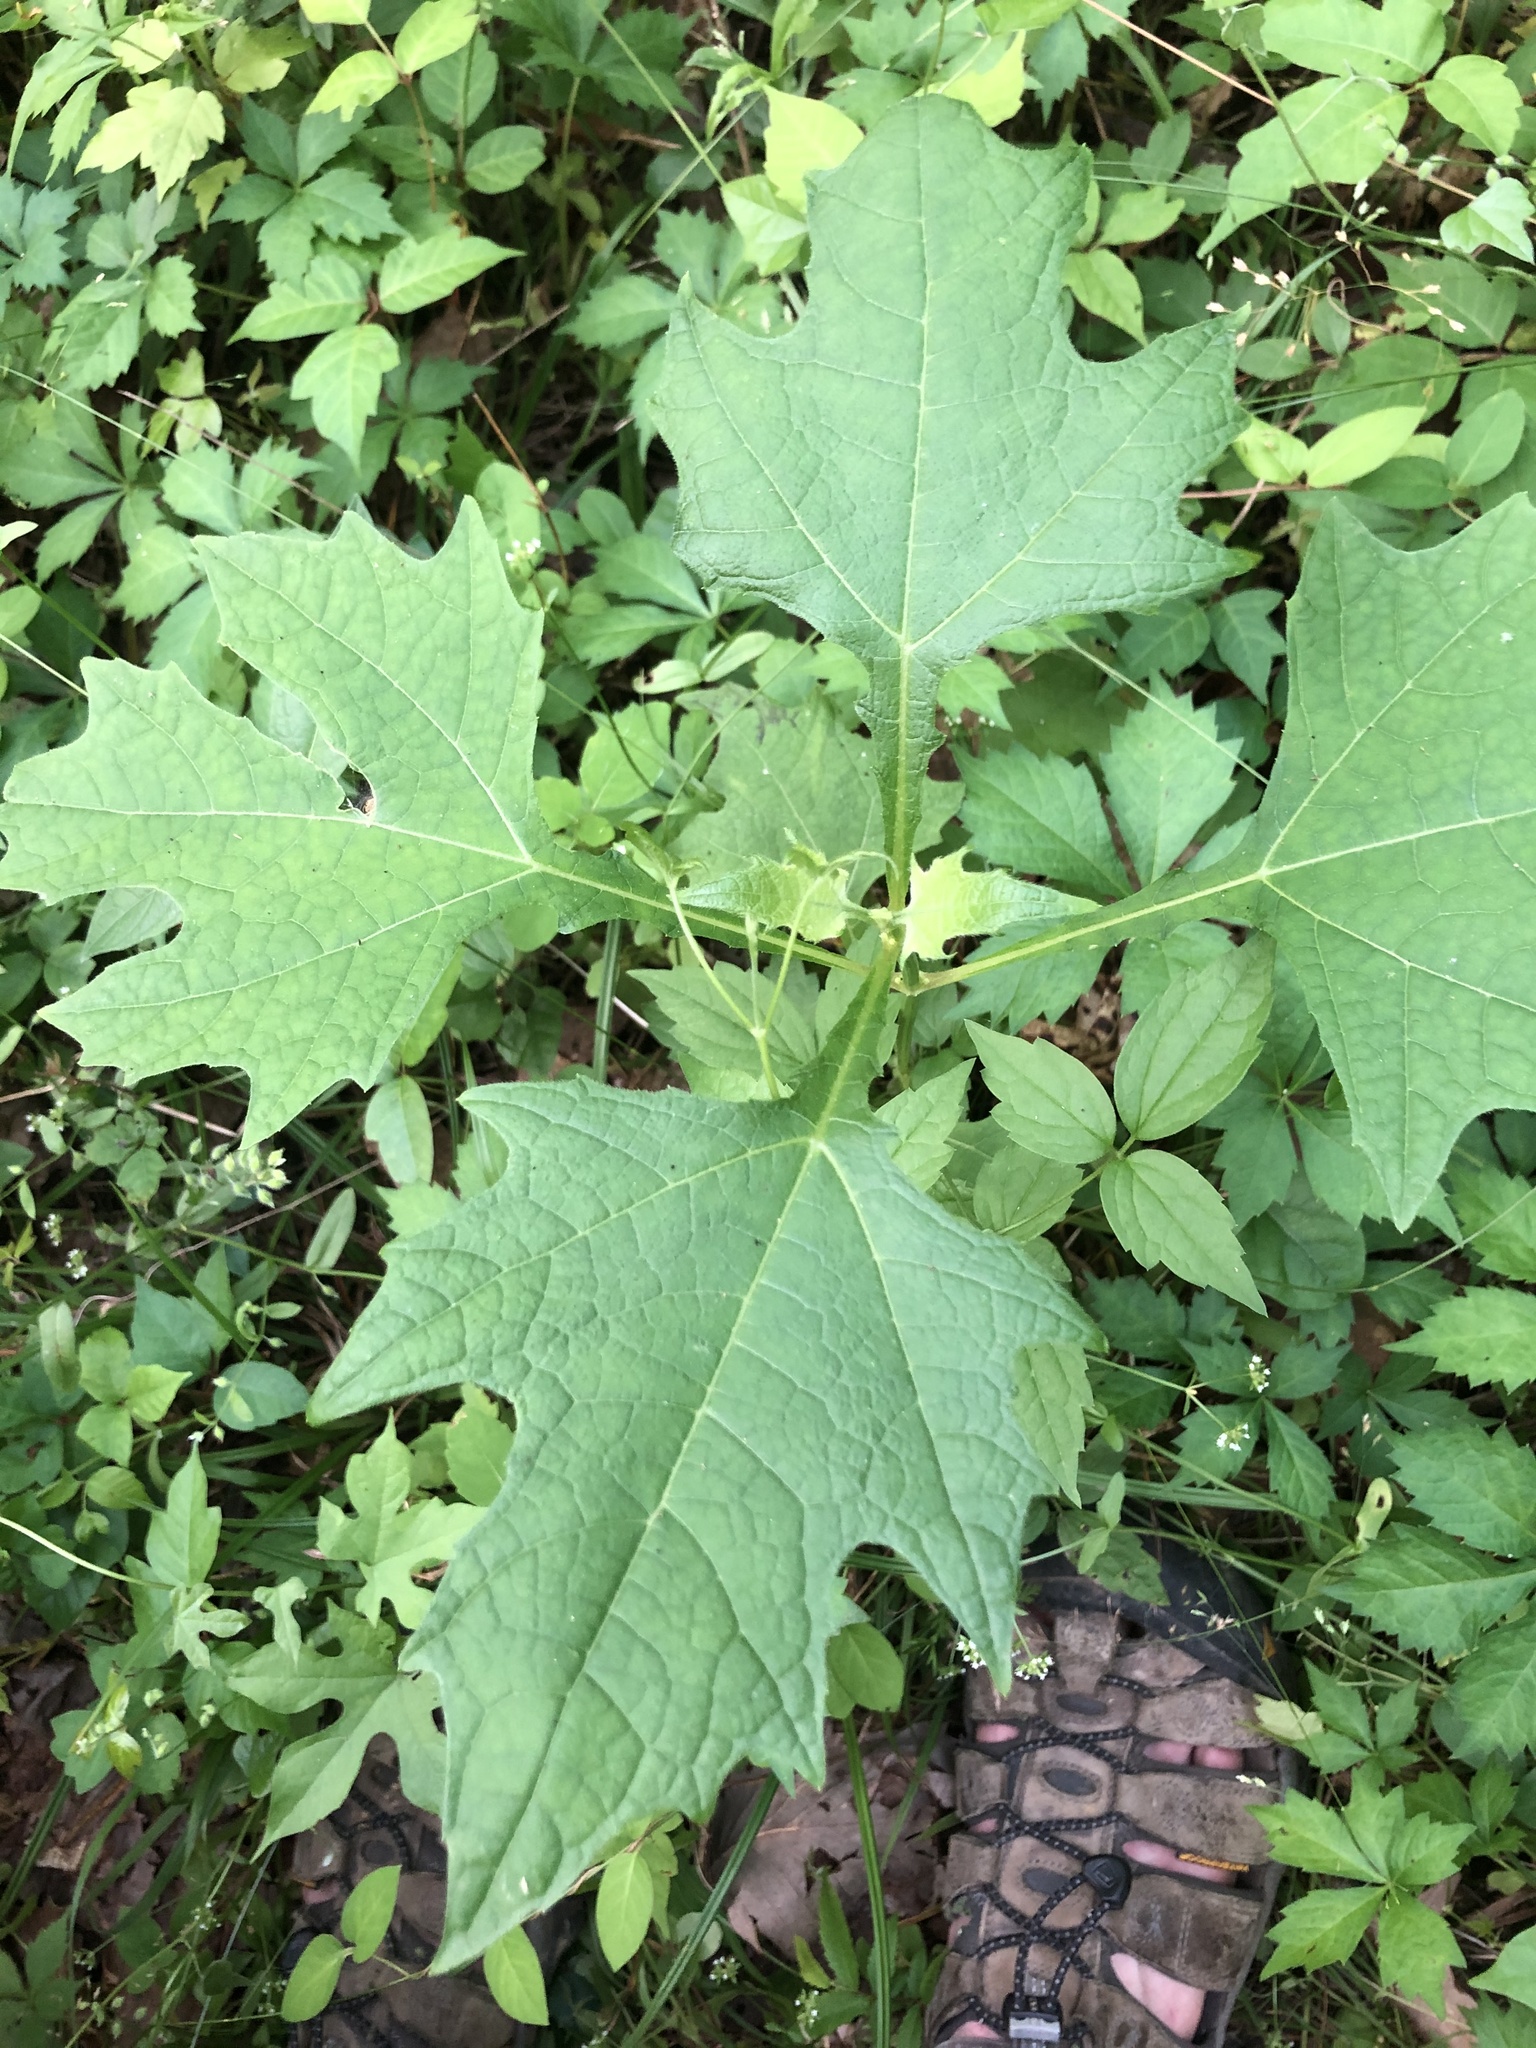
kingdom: Plantae
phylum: Tracheophyta
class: Magnoliopsida
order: Asterales
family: Asteraceae
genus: Smallanthus
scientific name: Smallanthus uvedalia
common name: Bear's-foot
